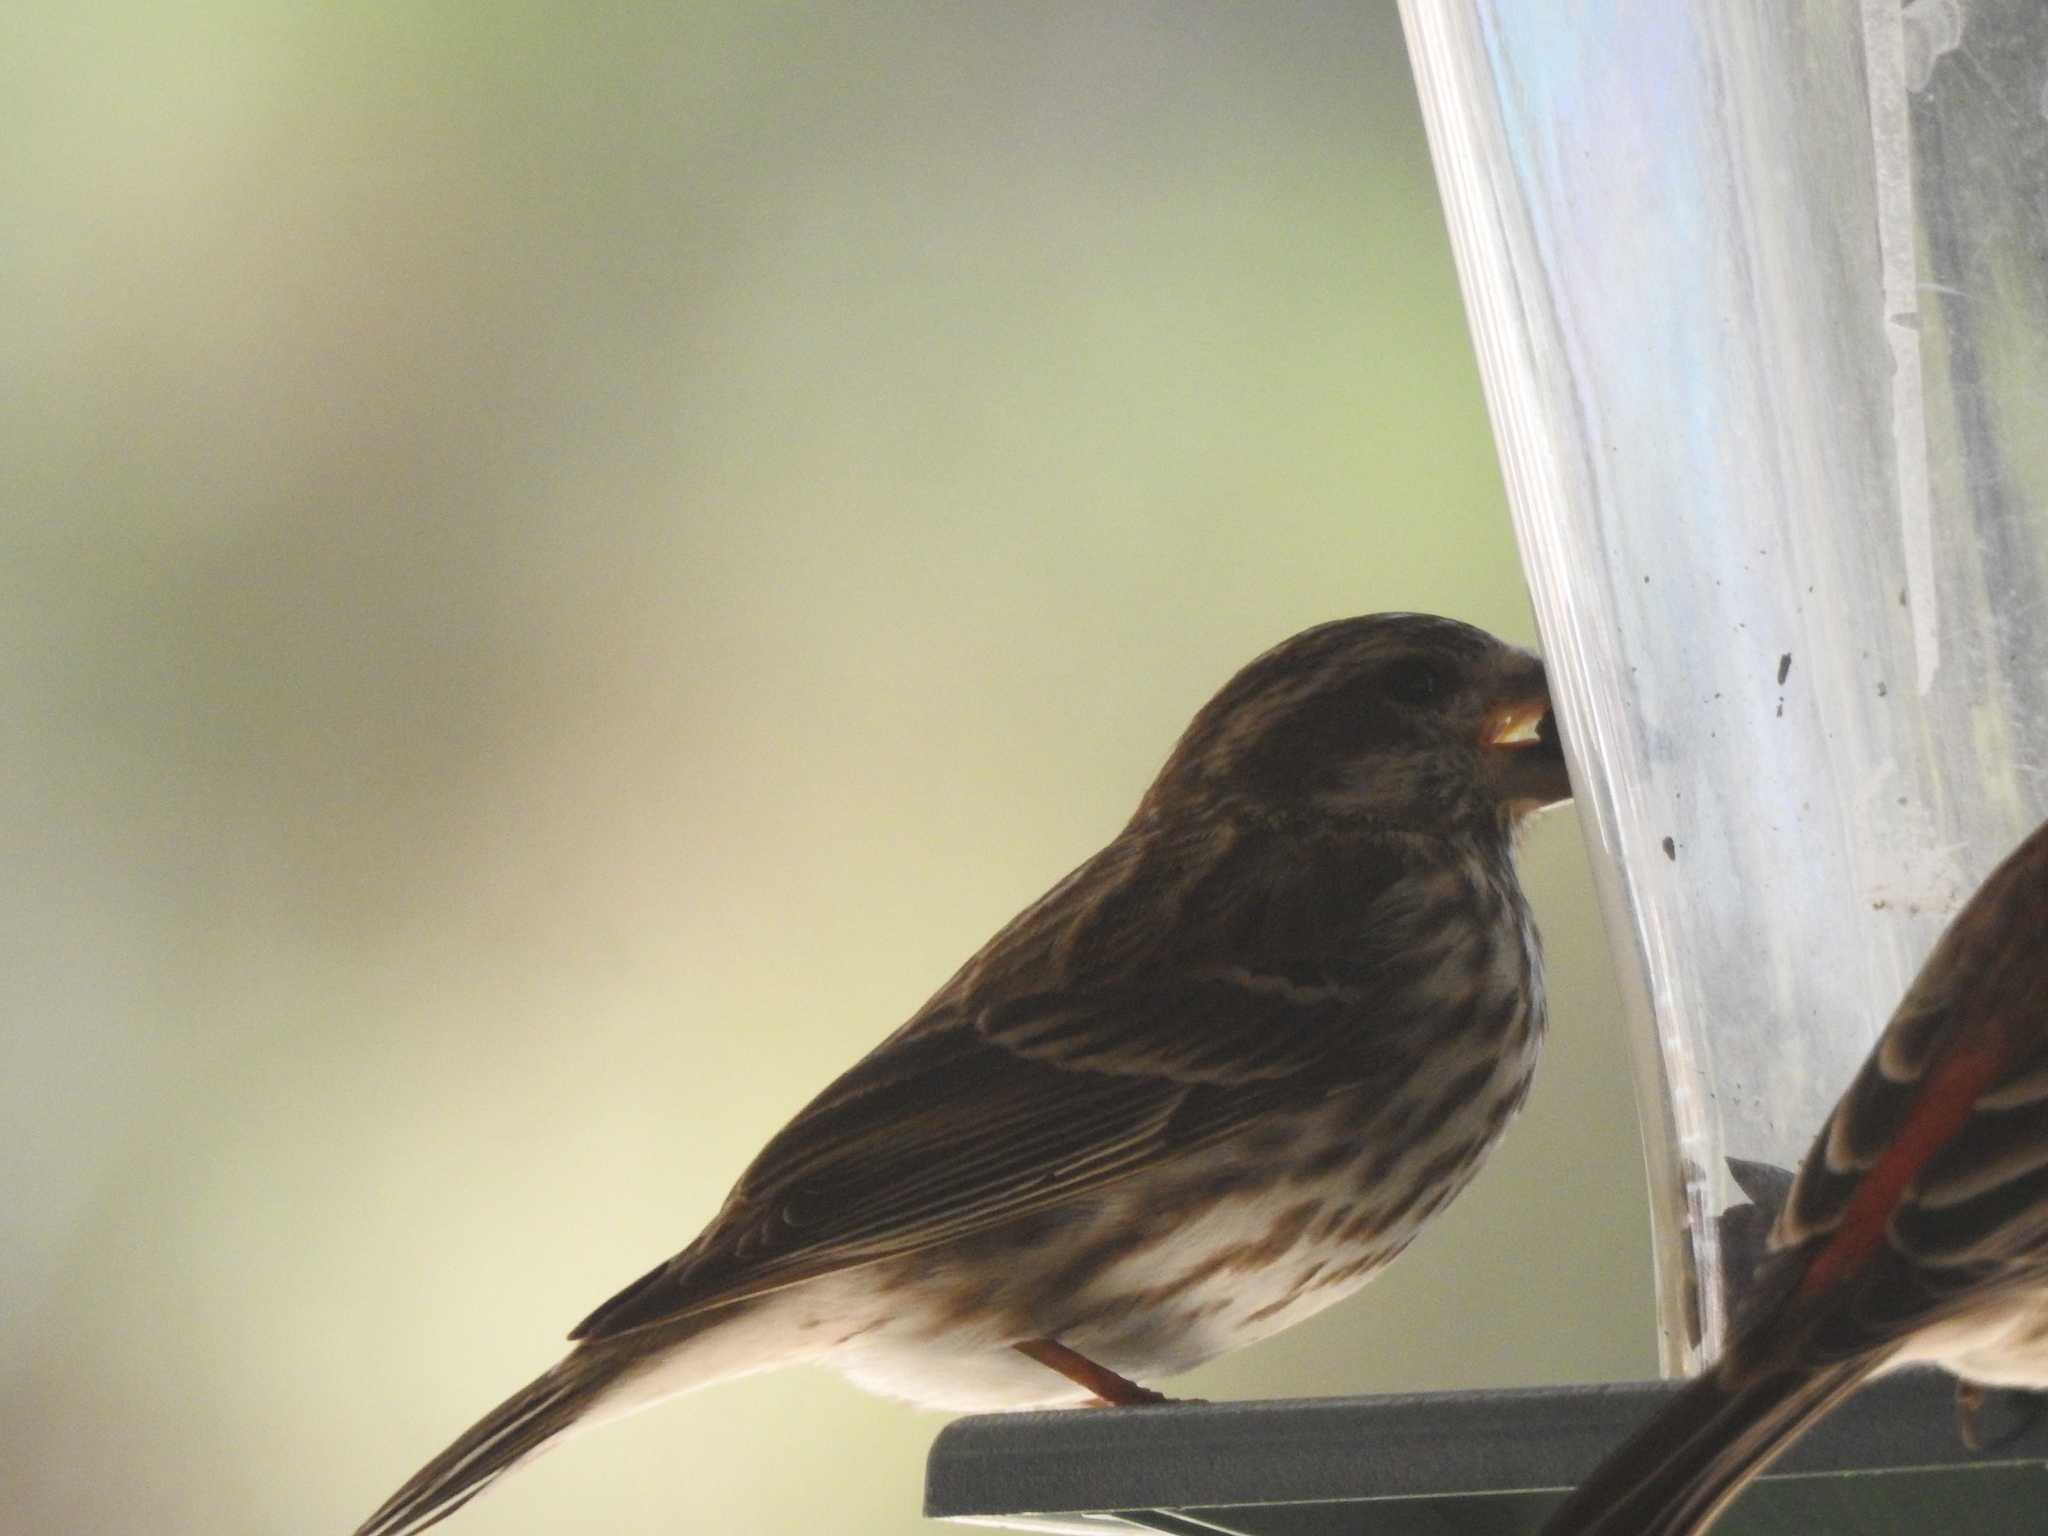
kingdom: Animalia
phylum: Chordata
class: Aves
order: Passeriformes
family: Fringillidae
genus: Haemorhous
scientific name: Haemorhous purpureus
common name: Purple finch
